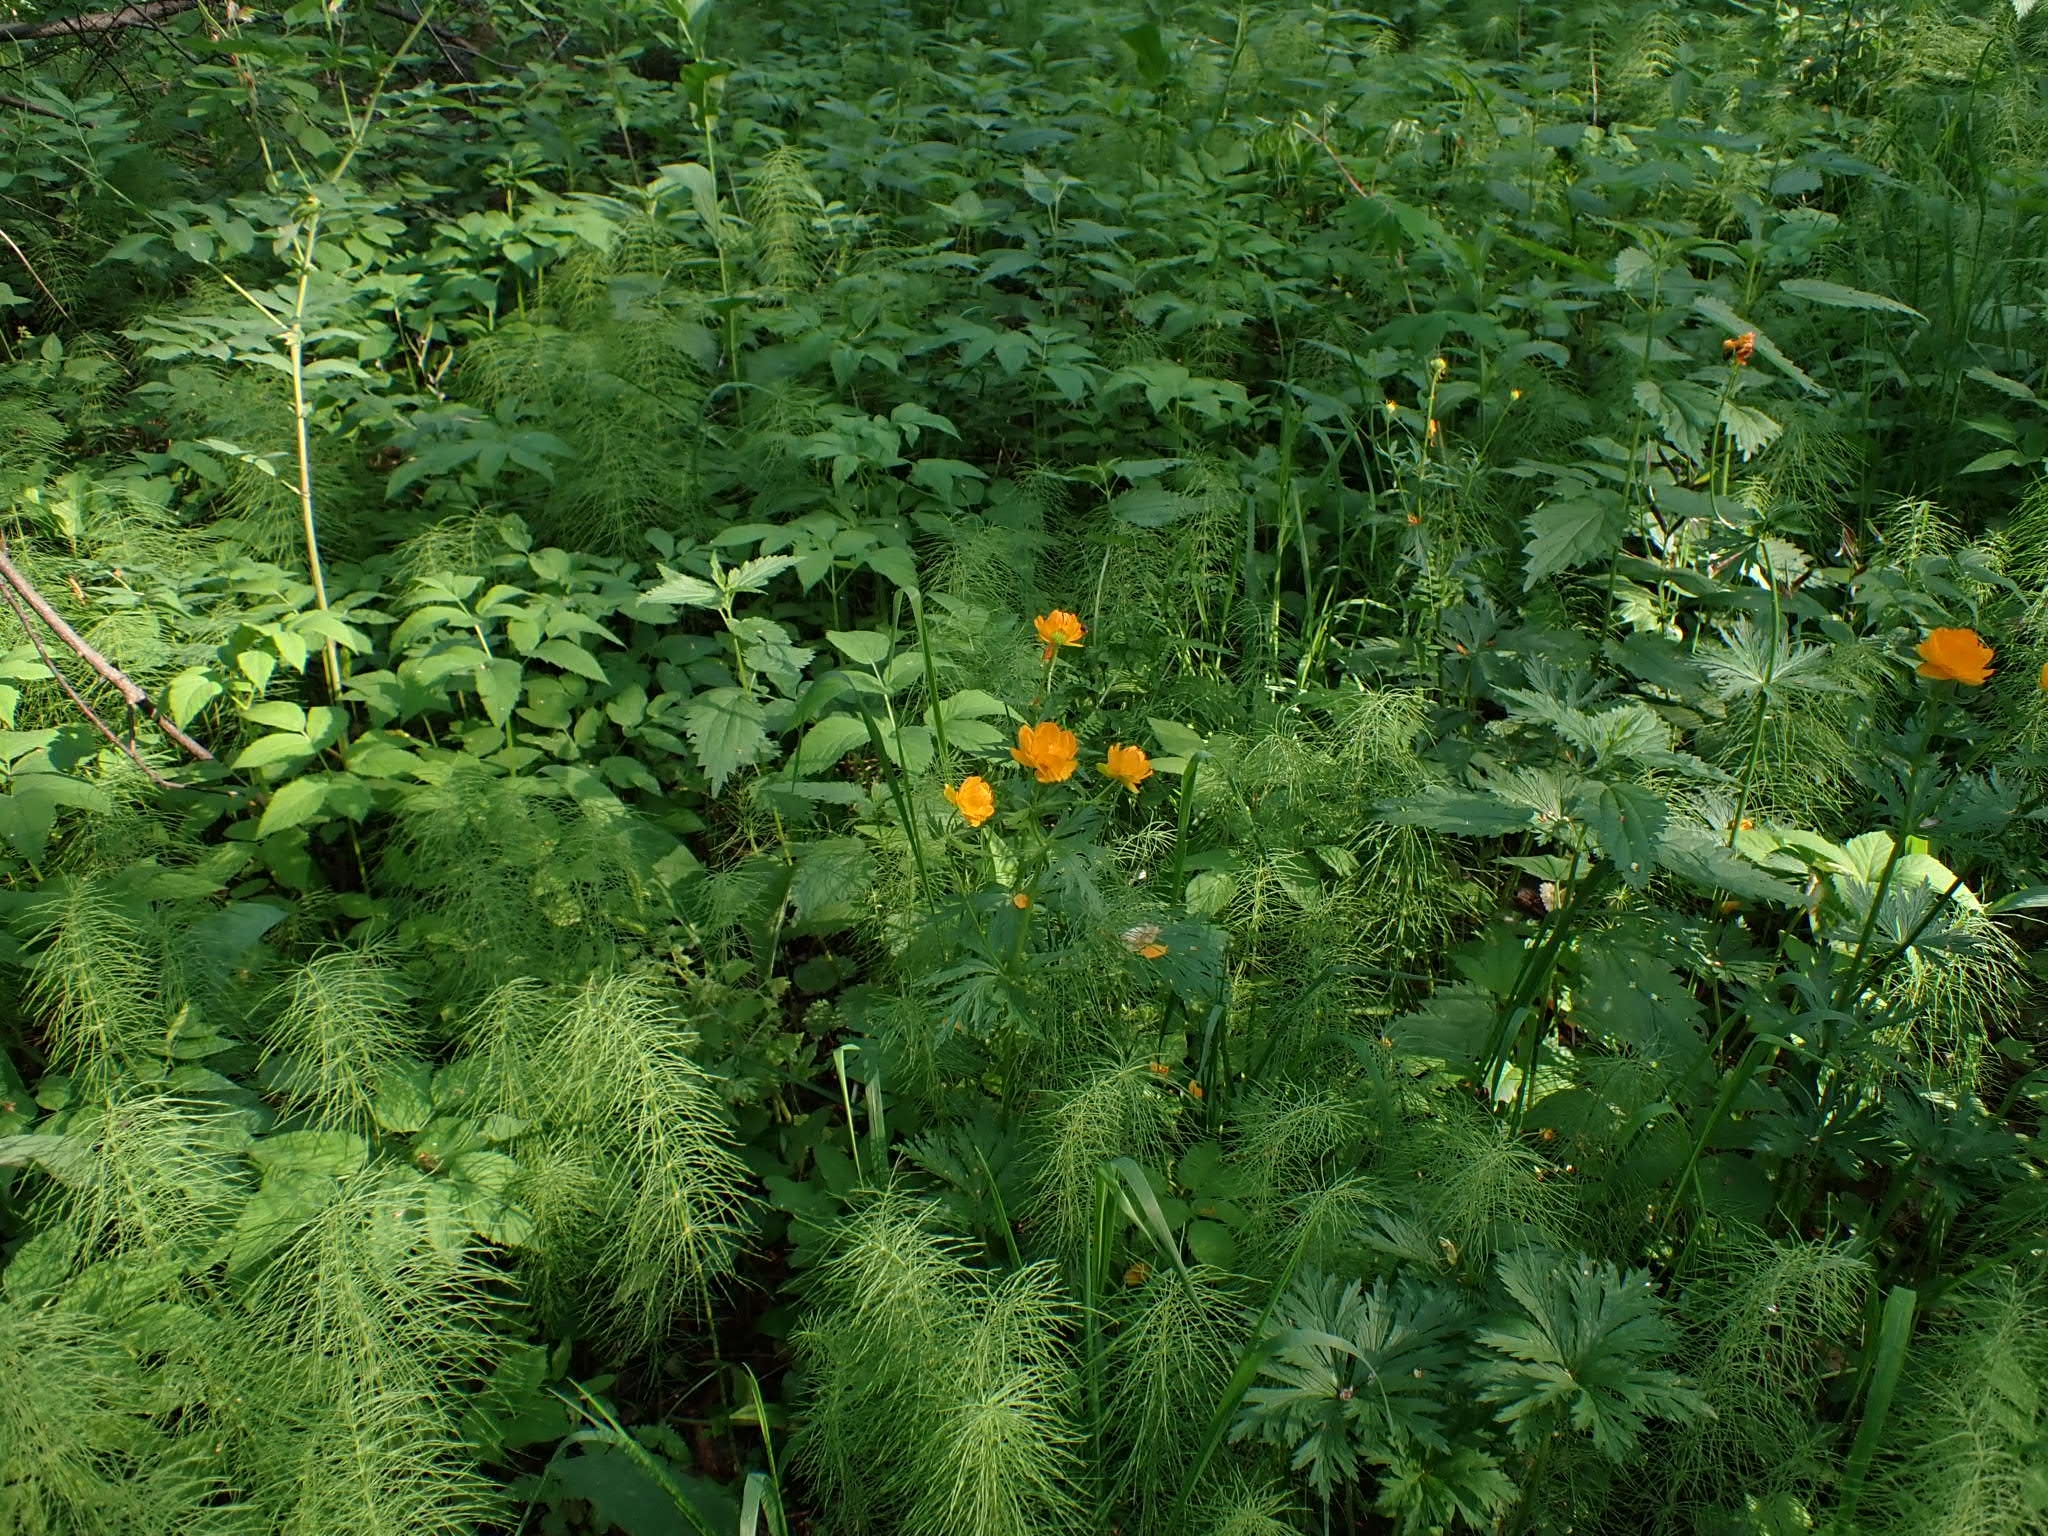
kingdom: Plantae
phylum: Tracheophyta
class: Magnoliopsida
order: Ranunculales
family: Ranunculaceae
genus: Trollius
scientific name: Trollius asiaticus
